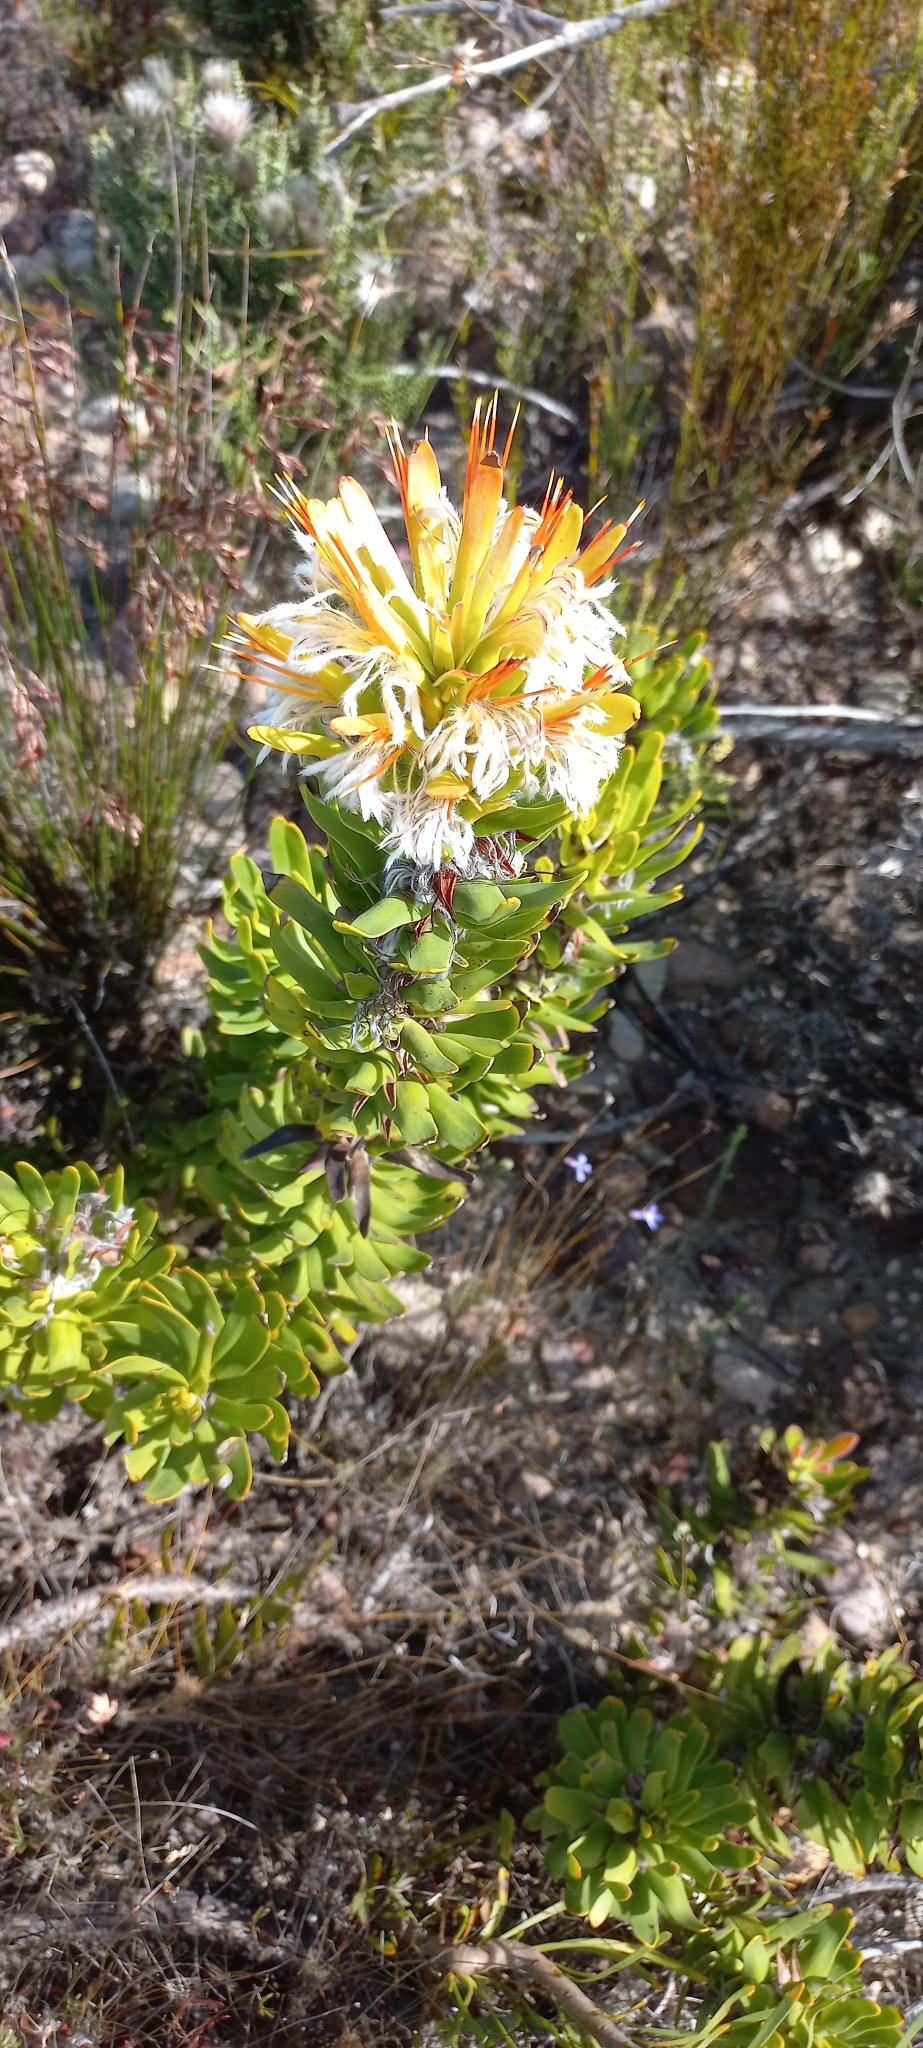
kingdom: Plantae
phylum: Tracheophyta
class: Magnoliopsida
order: Proteales
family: Proteaceae
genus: Mimetes
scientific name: Mimetes cucullatus
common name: Common pagoda
